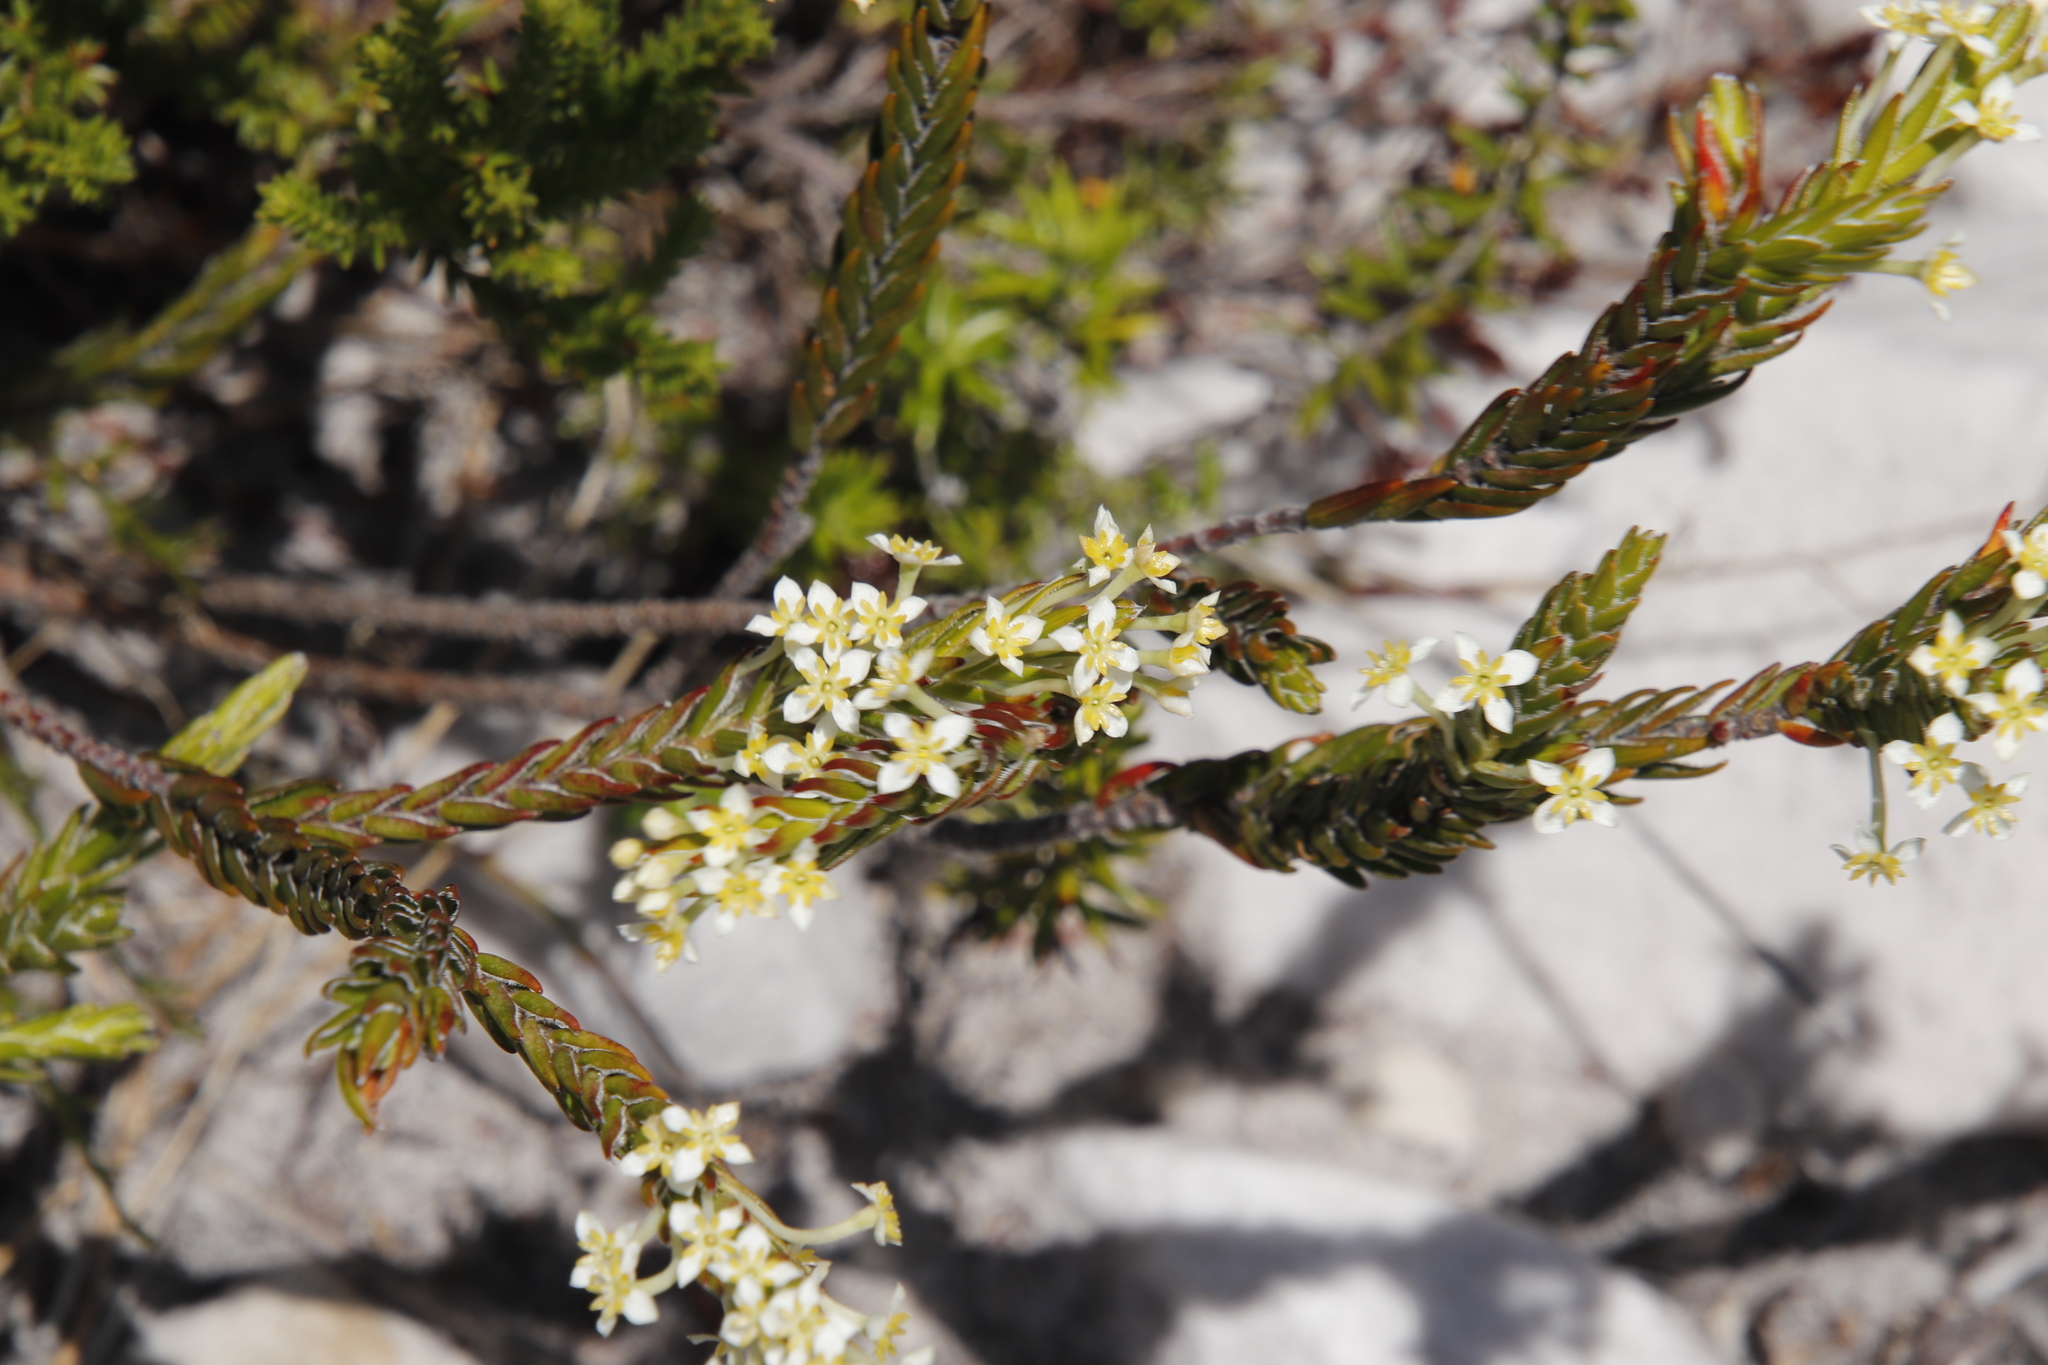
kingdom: Plantae
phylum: Tracheophyta
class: Magnoliopsida
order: Malvales
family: Thymelaeaceae
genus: Struthiola
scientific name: Struthiola ciliata
